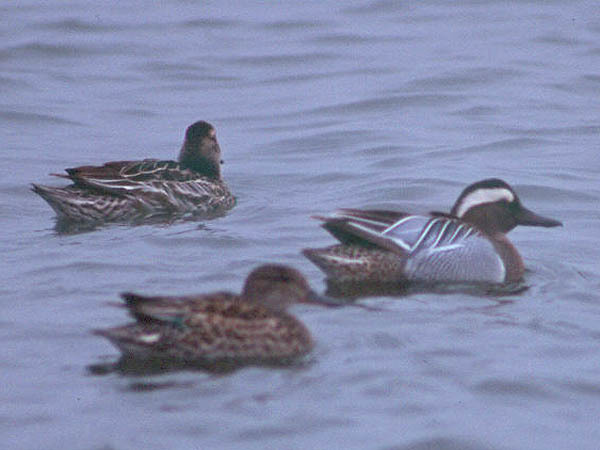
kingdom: Animalia
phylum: Chordata
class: Aves
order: Anseriformes
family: Anatidae
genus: Spatula
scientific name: Spatula querquedula
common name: Garganey
